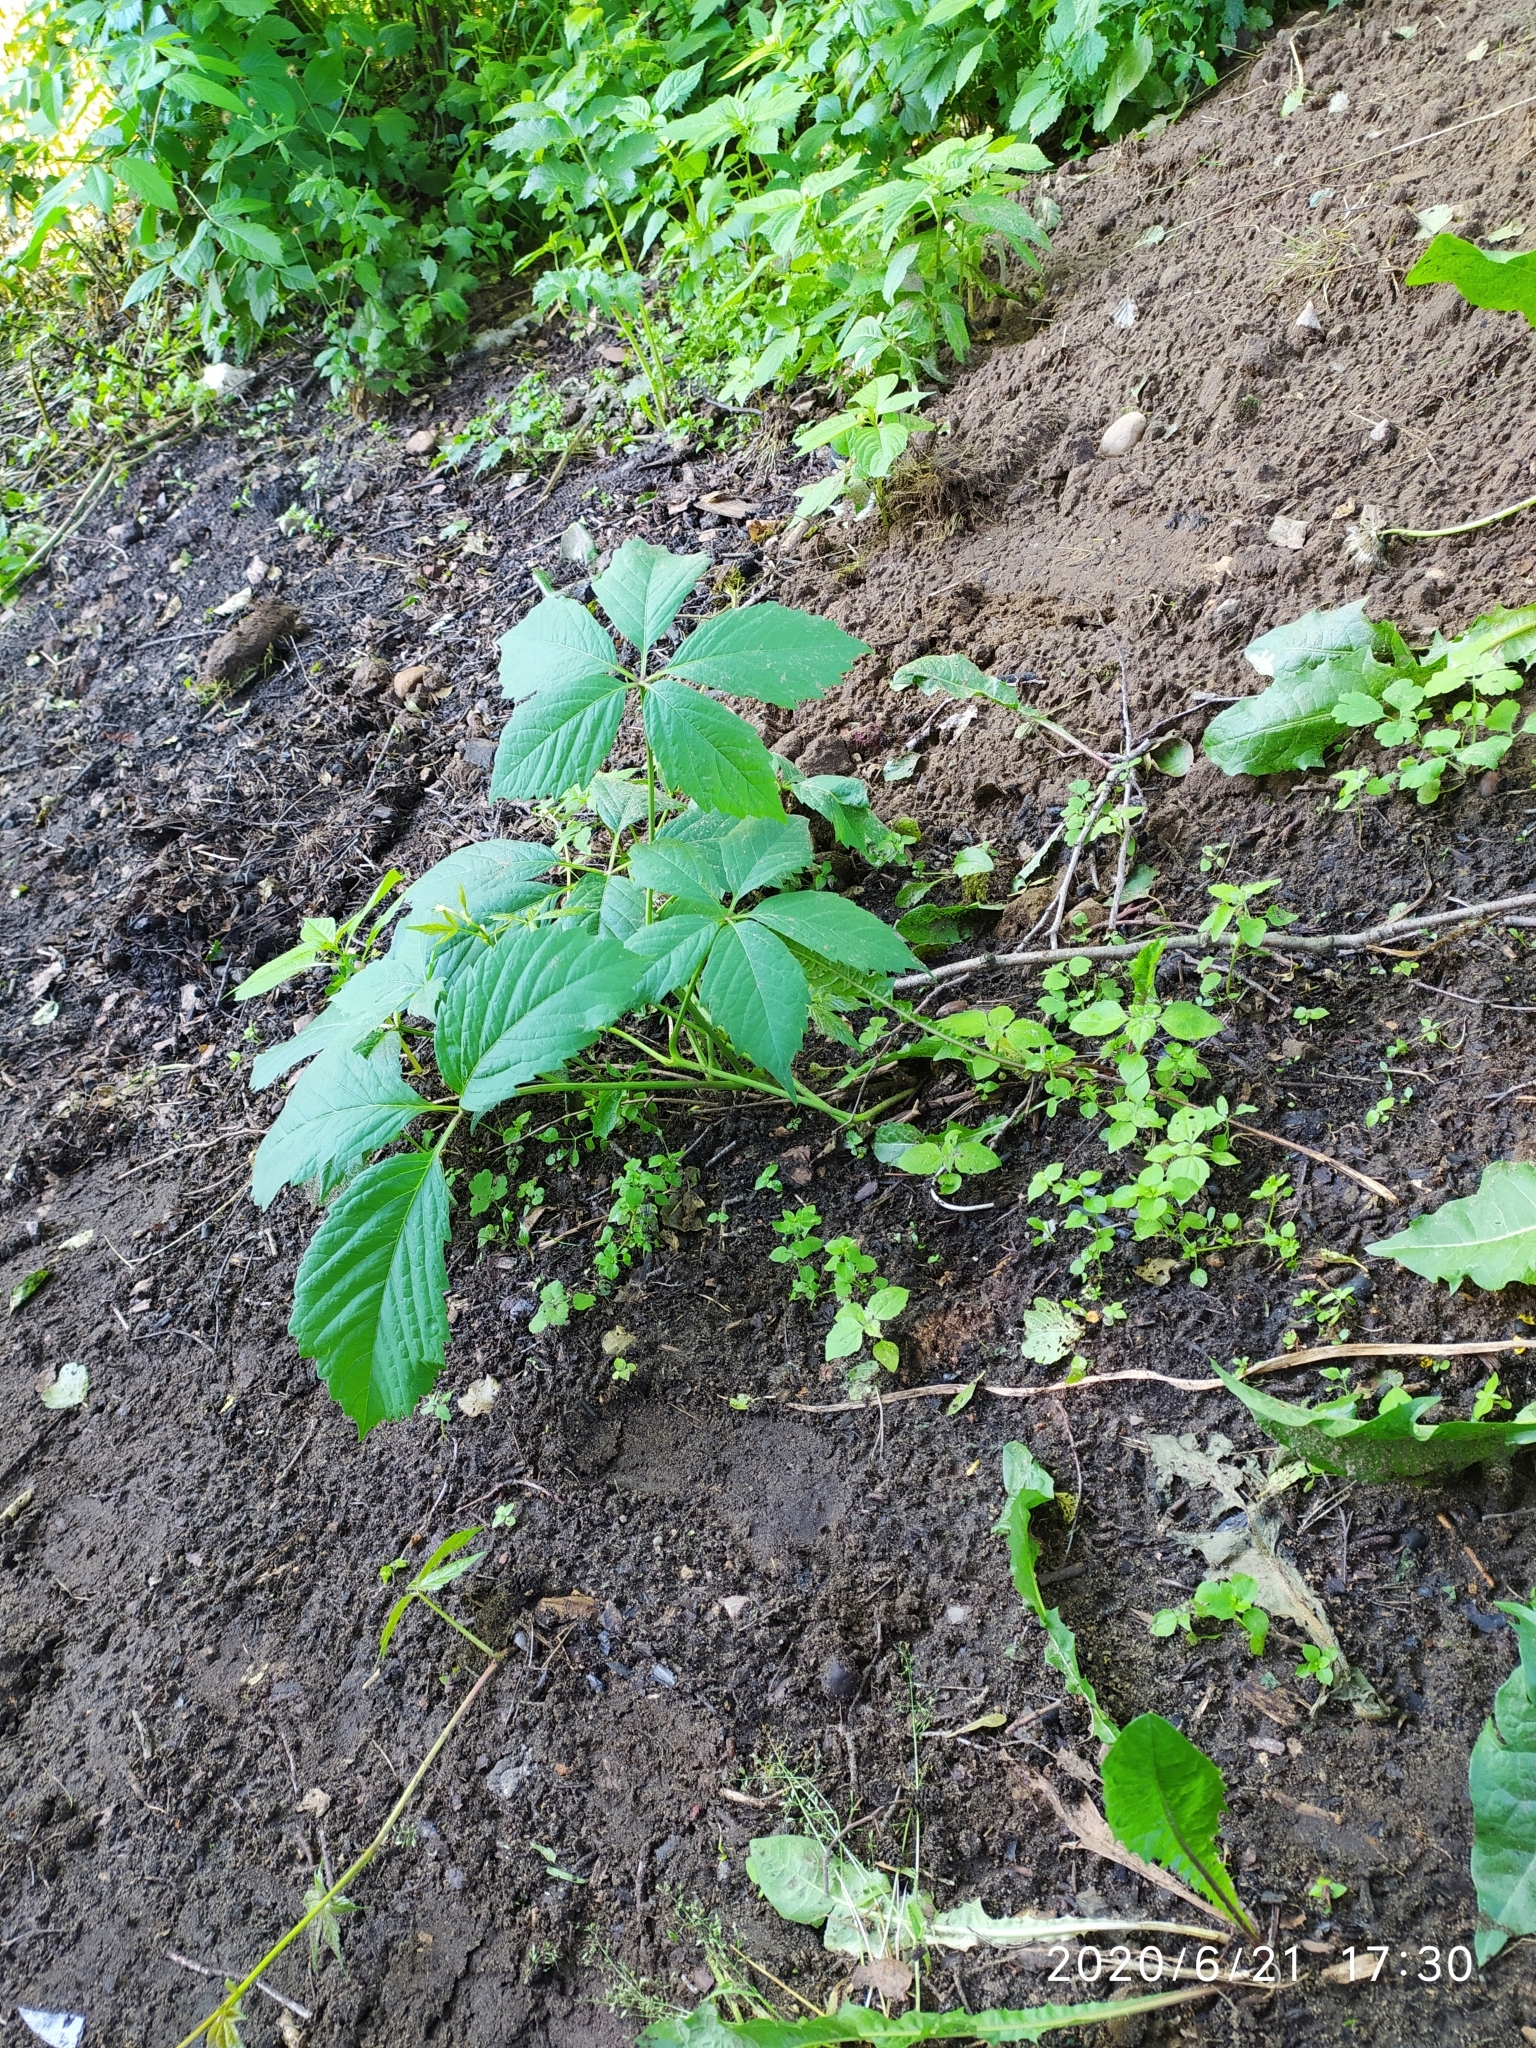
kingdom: Plantae
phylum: Tracheophyta
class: Magnoliopsida
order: Vitales
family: Vitaceae
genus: Parthenocissus
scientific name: Parthenocissus inserta
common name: False virginia-creeper
